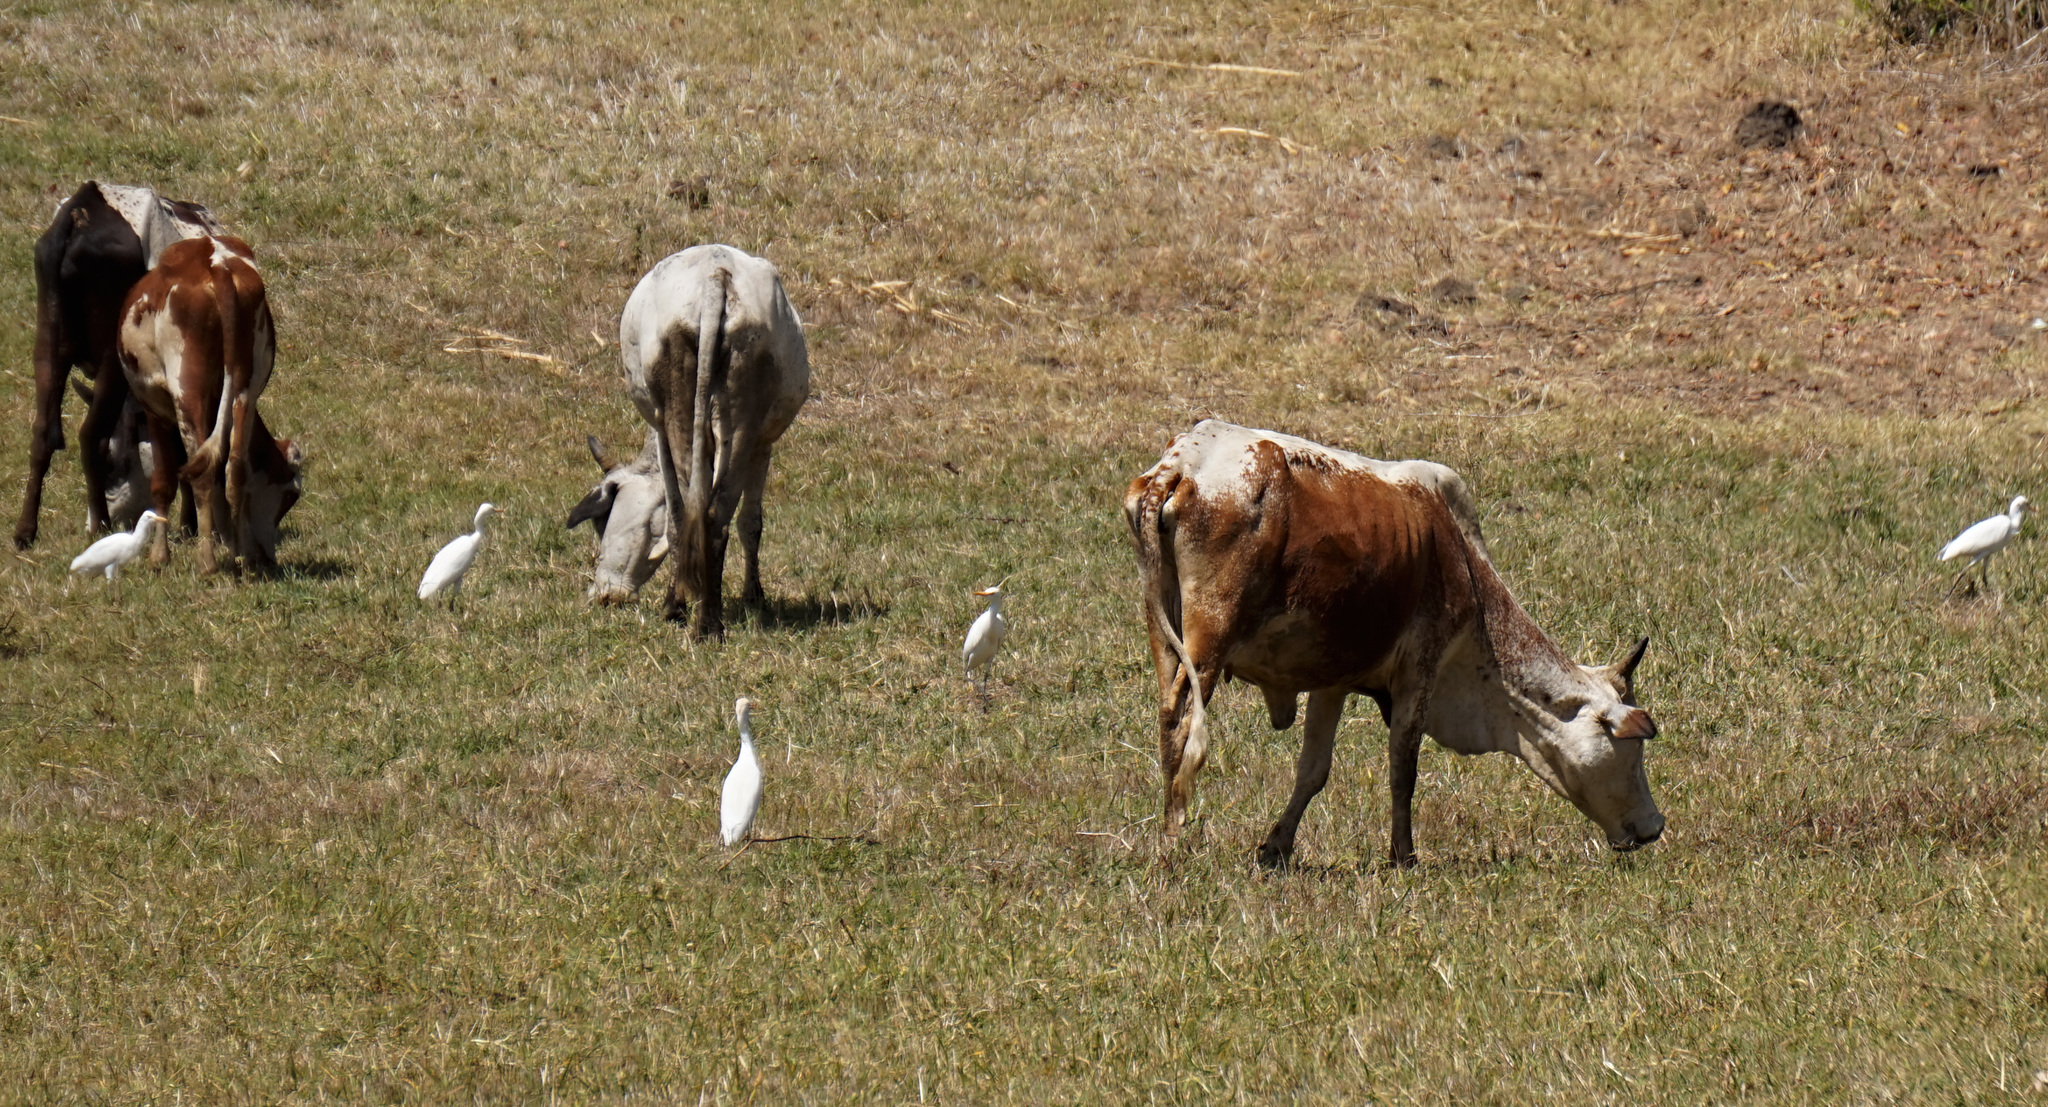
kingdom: Animalia
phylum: Chordata
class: Aves
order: Pelecaniformes
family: Ardeidae
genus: Bubulcus
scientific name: Bubulcus ibis
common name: Cattle egret
